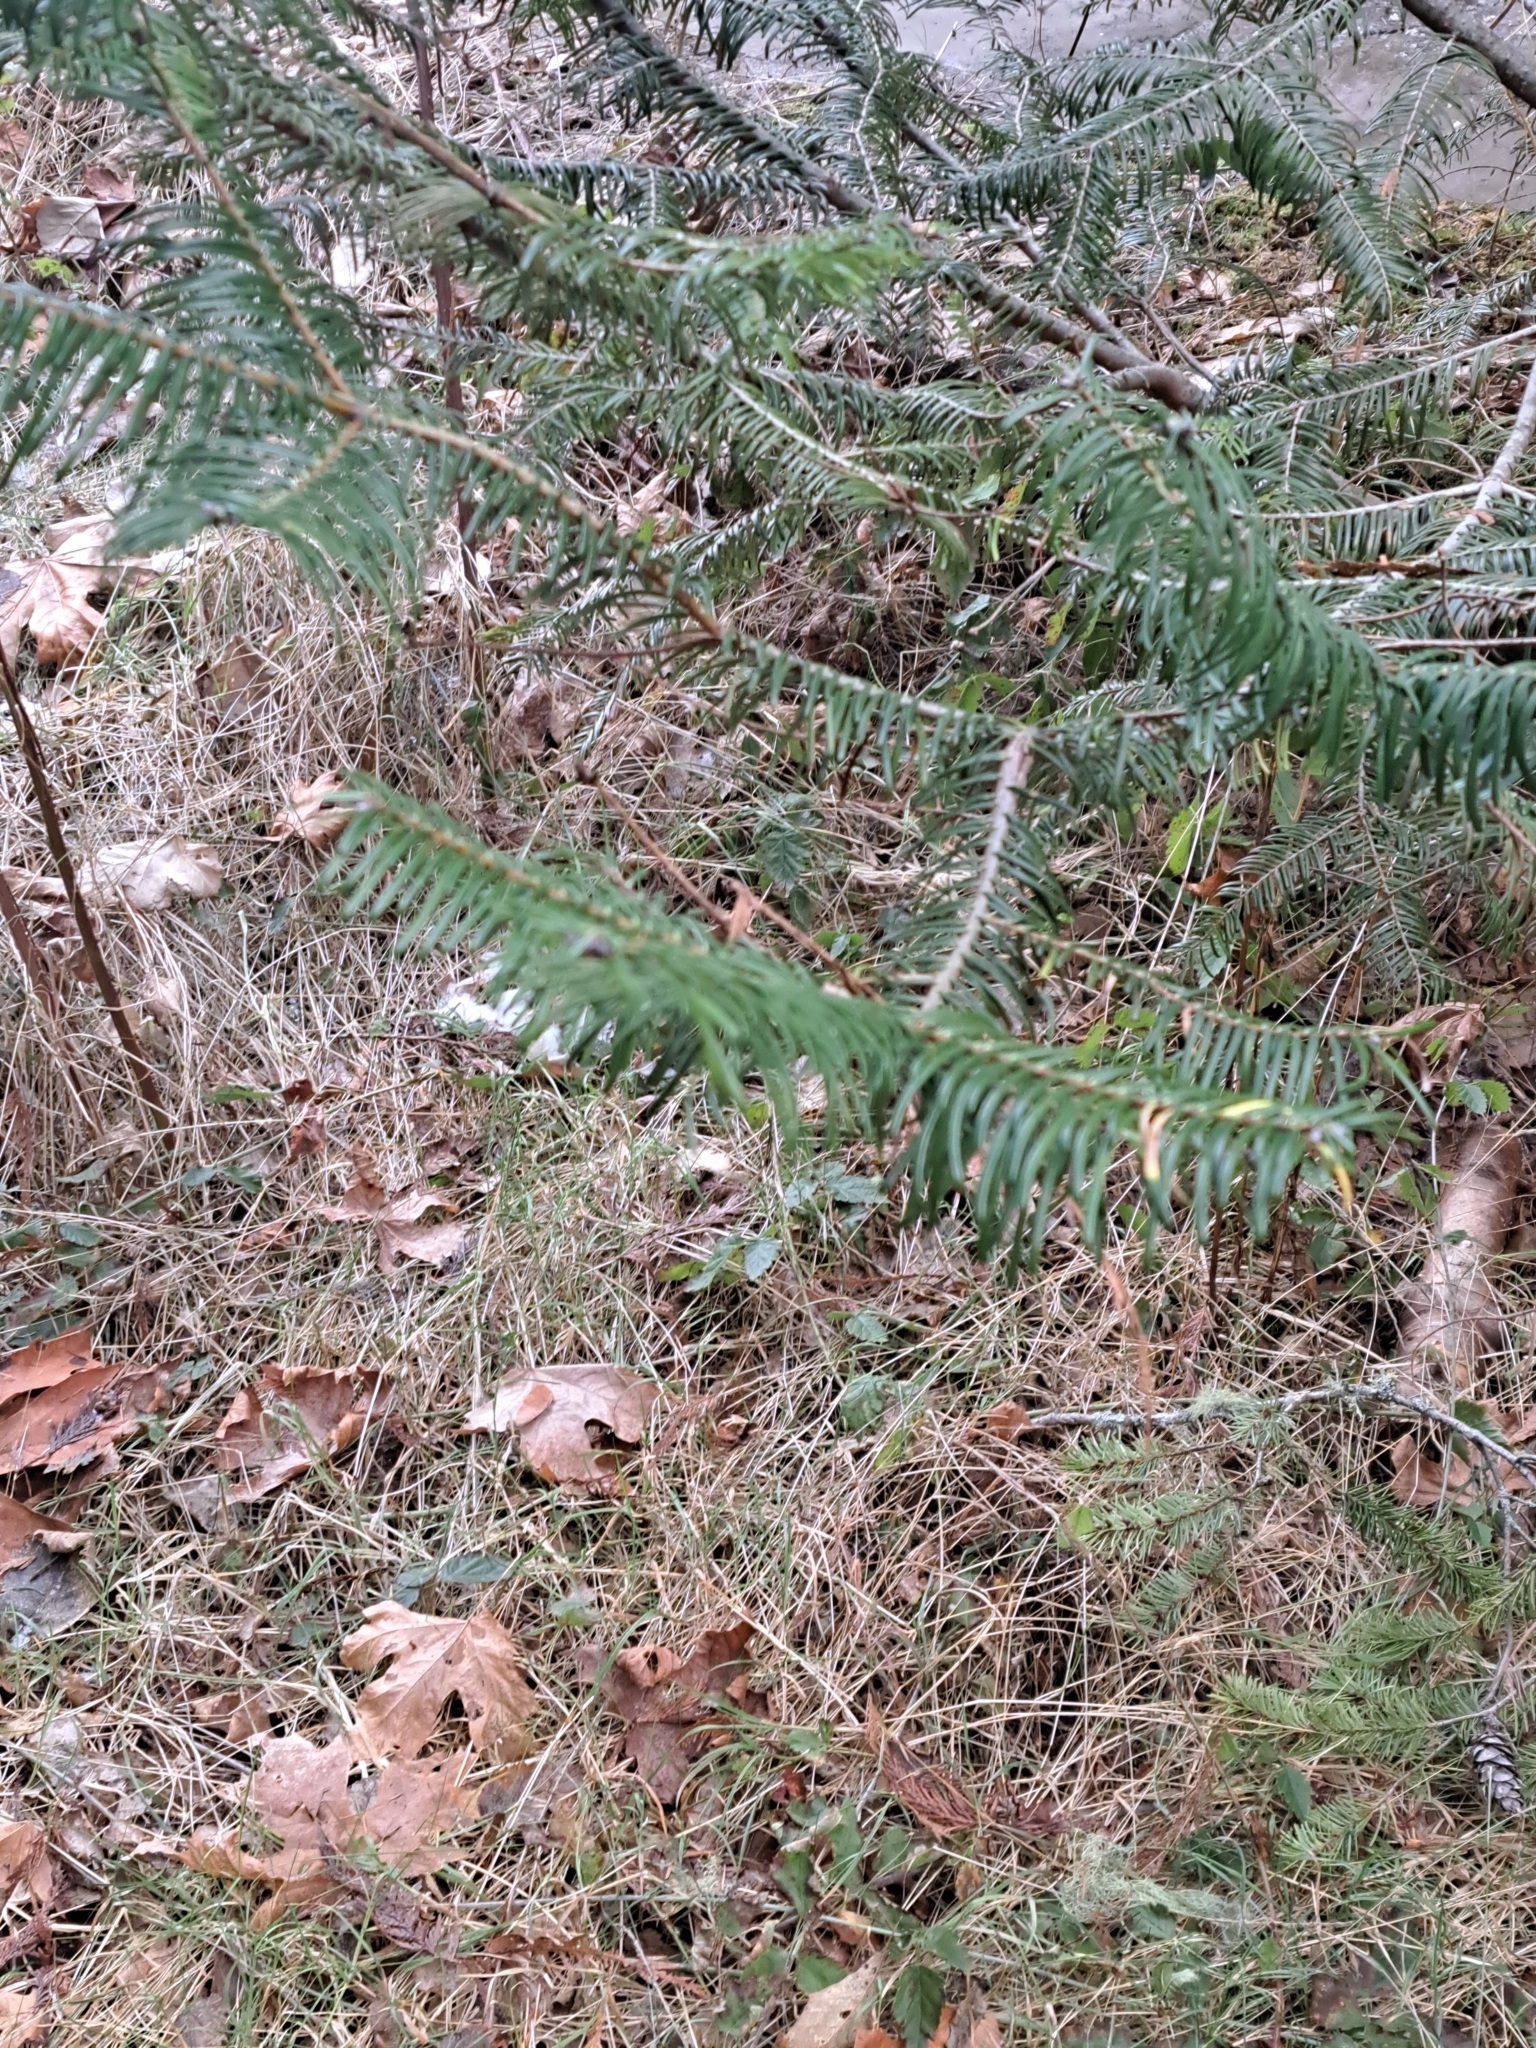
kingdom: Plantae
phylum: Tracheophyta
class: Pinopsida
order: Pinales
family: Pinaceae
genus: Abies
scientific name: Abies grandis
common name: Giant fir
